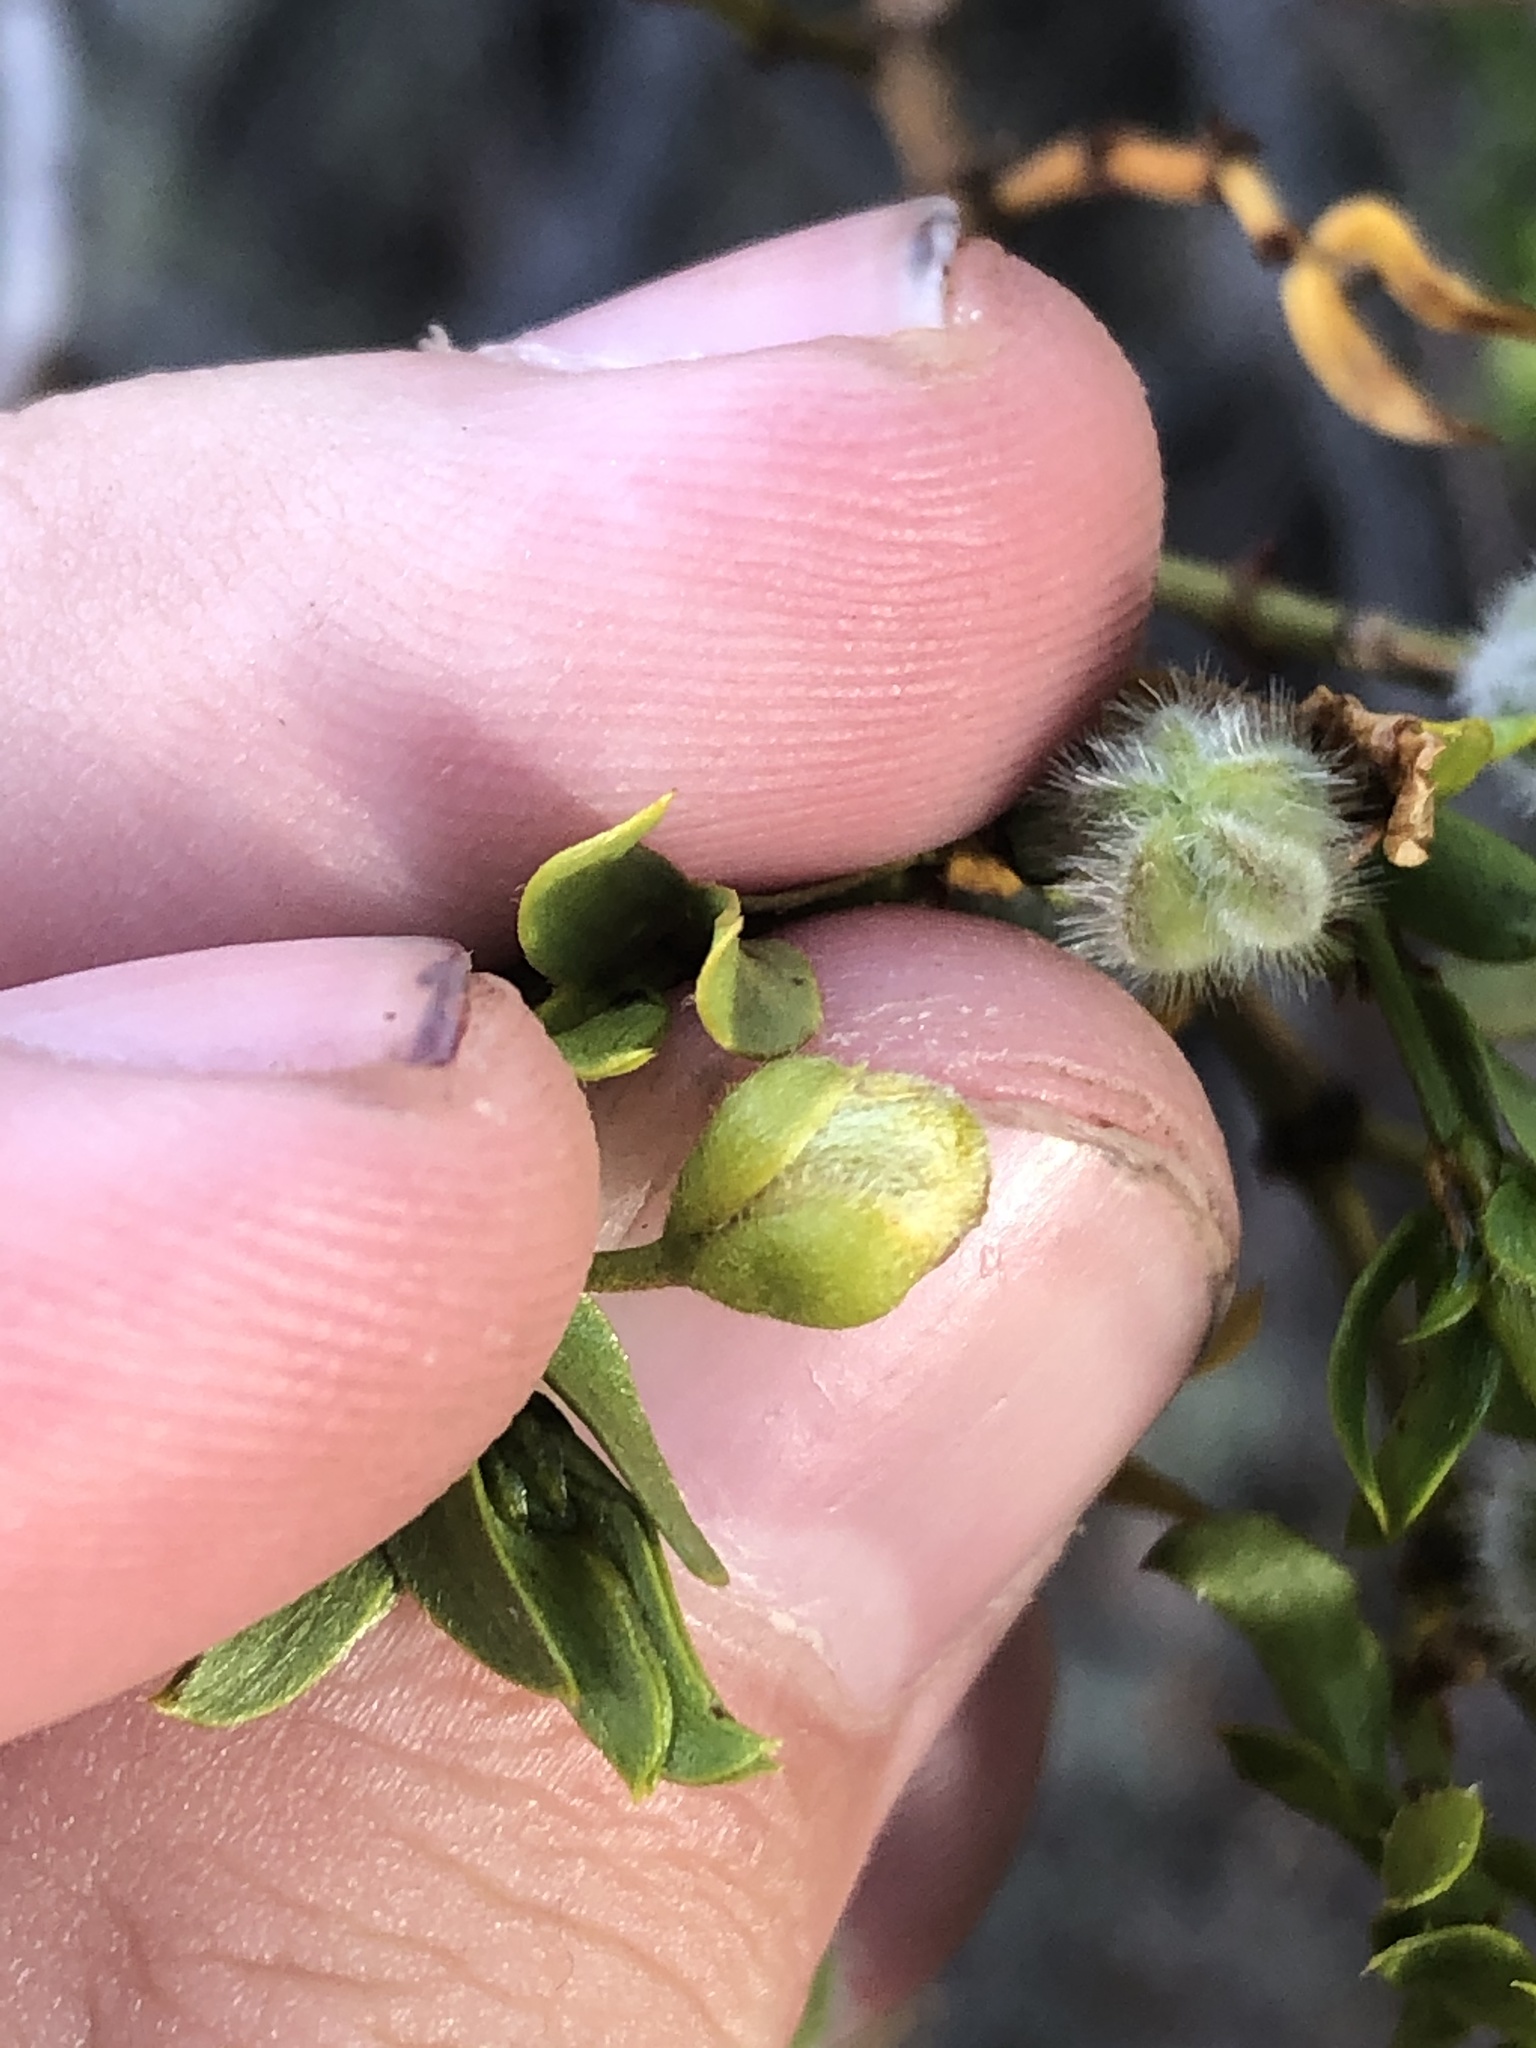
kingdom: Animalia
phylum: Arthropoda
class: Insecta
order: Diptera
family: Cecidomyiidae
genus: Asphondylia
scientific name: Asphondylia florea
